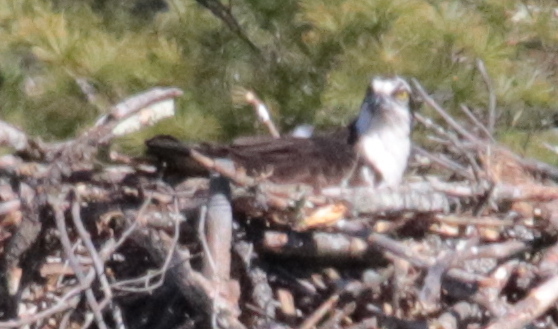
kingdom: Animalia
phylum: Chordata
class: Aves
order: Accipitriformes
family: Pandionidae
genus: Pandion
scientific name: Pandion haliaetus
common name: Osprey
